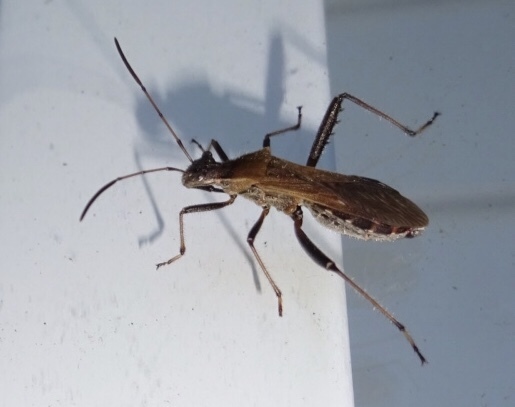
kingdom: Animalia
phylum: Arthropoda
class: Insecta
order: Hemiptera
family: Alydidae
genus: Alydus
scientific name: Alydus pilosulus
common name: Broad-headed bug
